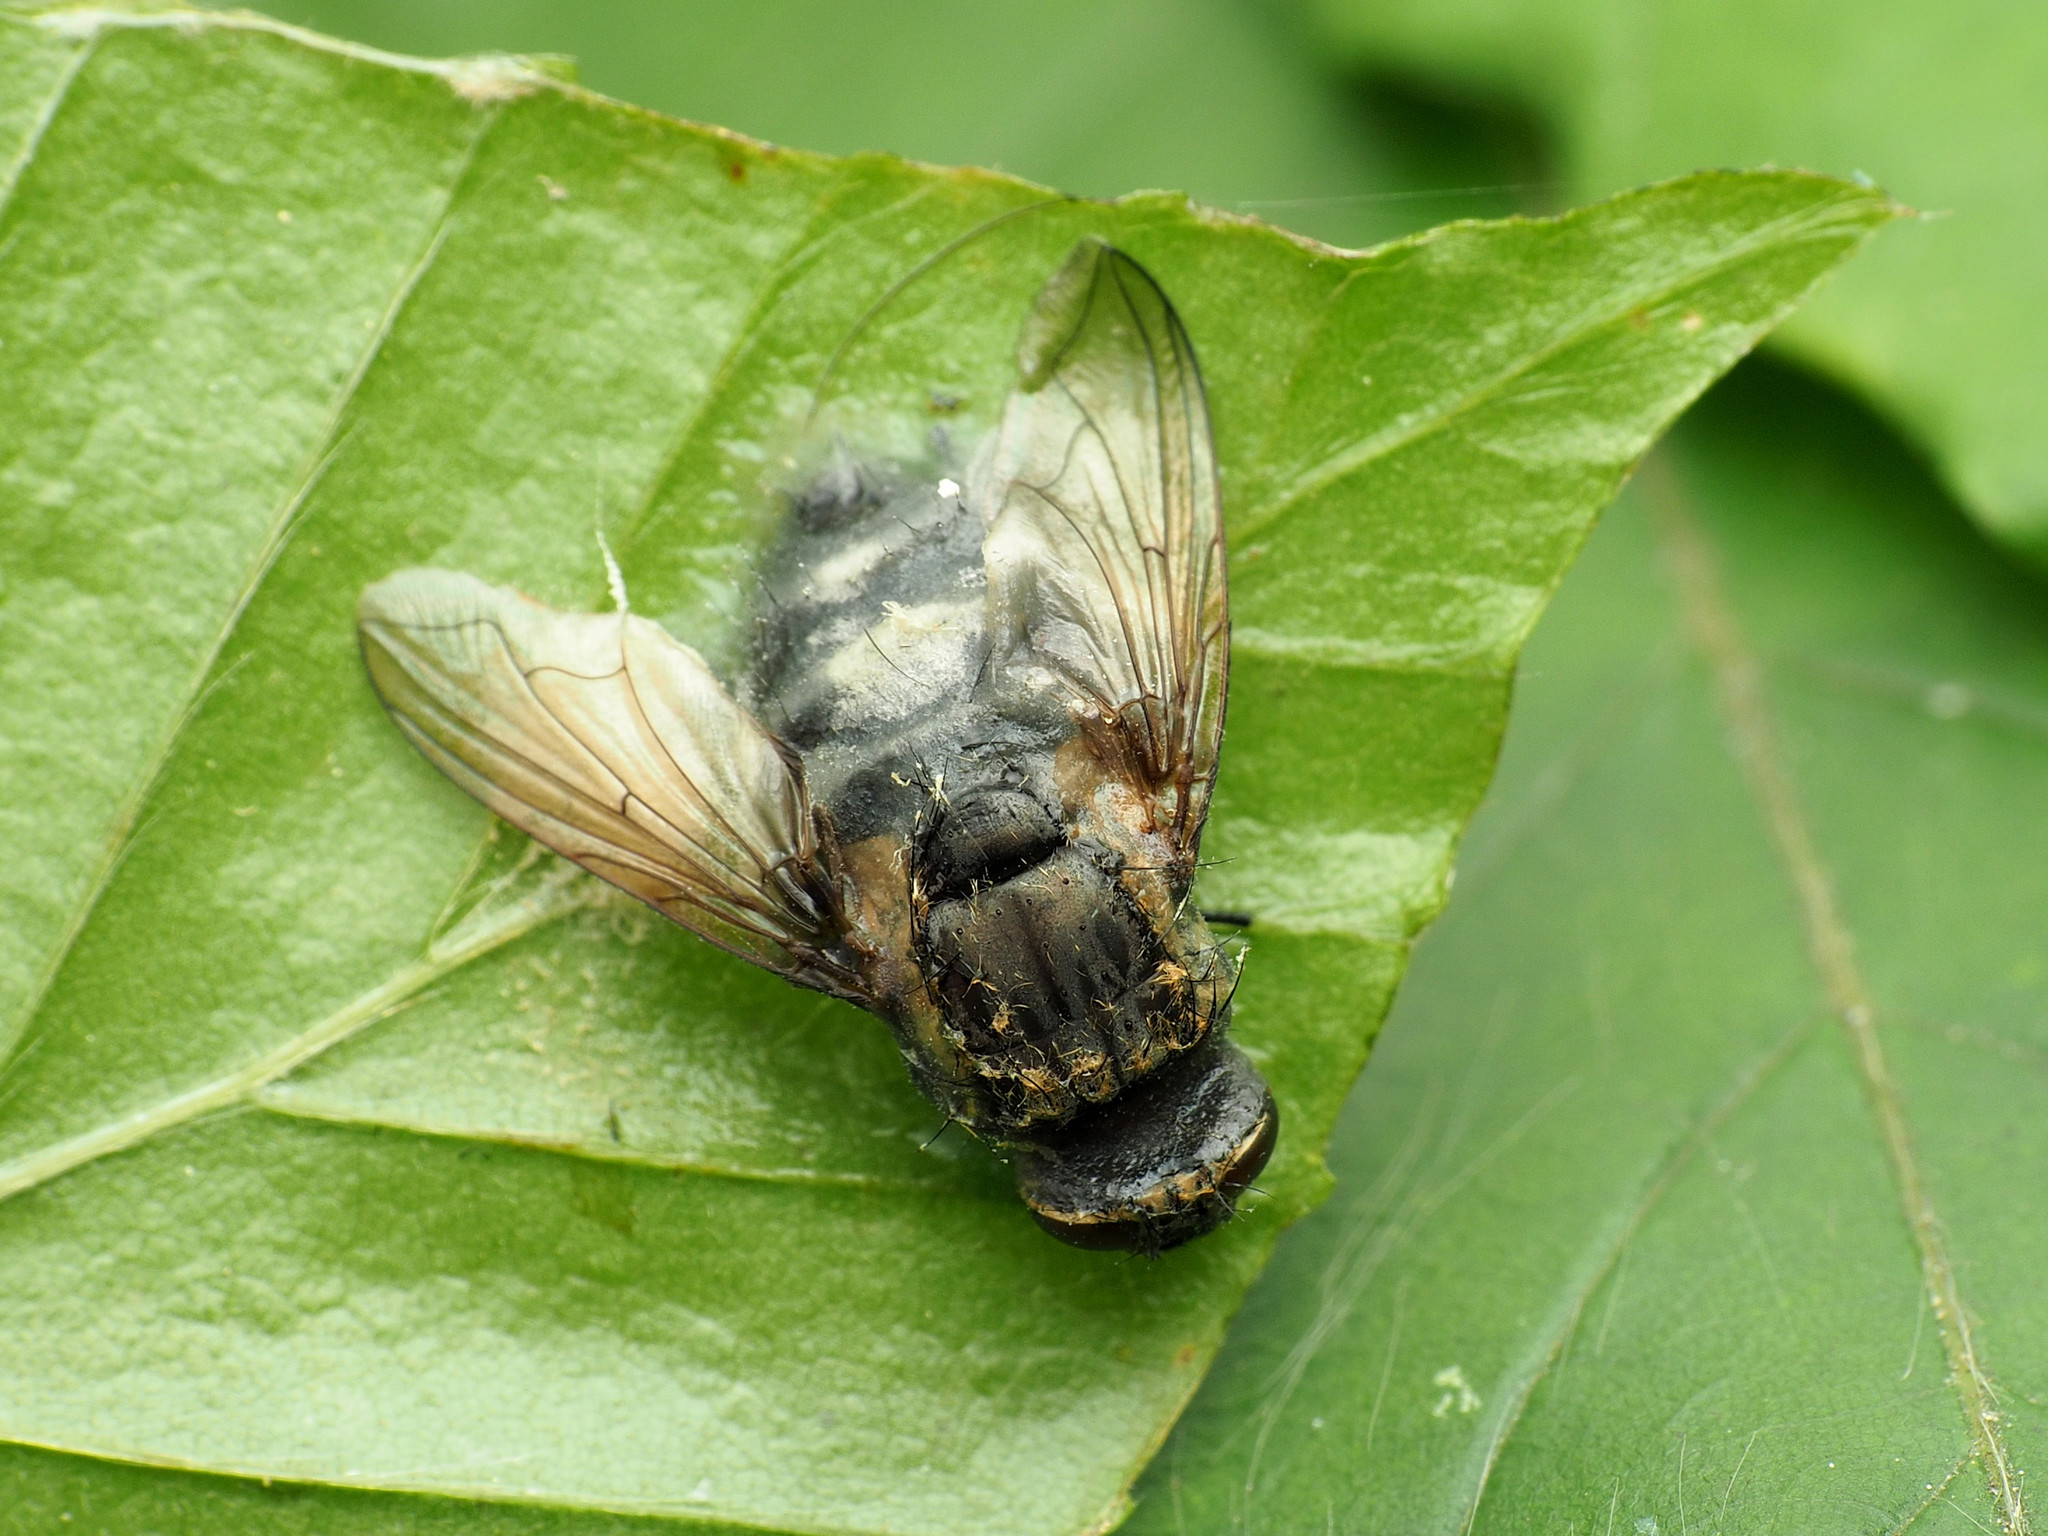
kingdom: Animalia
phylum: Arthropoda
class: Insecta
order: Diptera
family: Polleniidae
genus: Pollenia
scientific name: Pollenia
